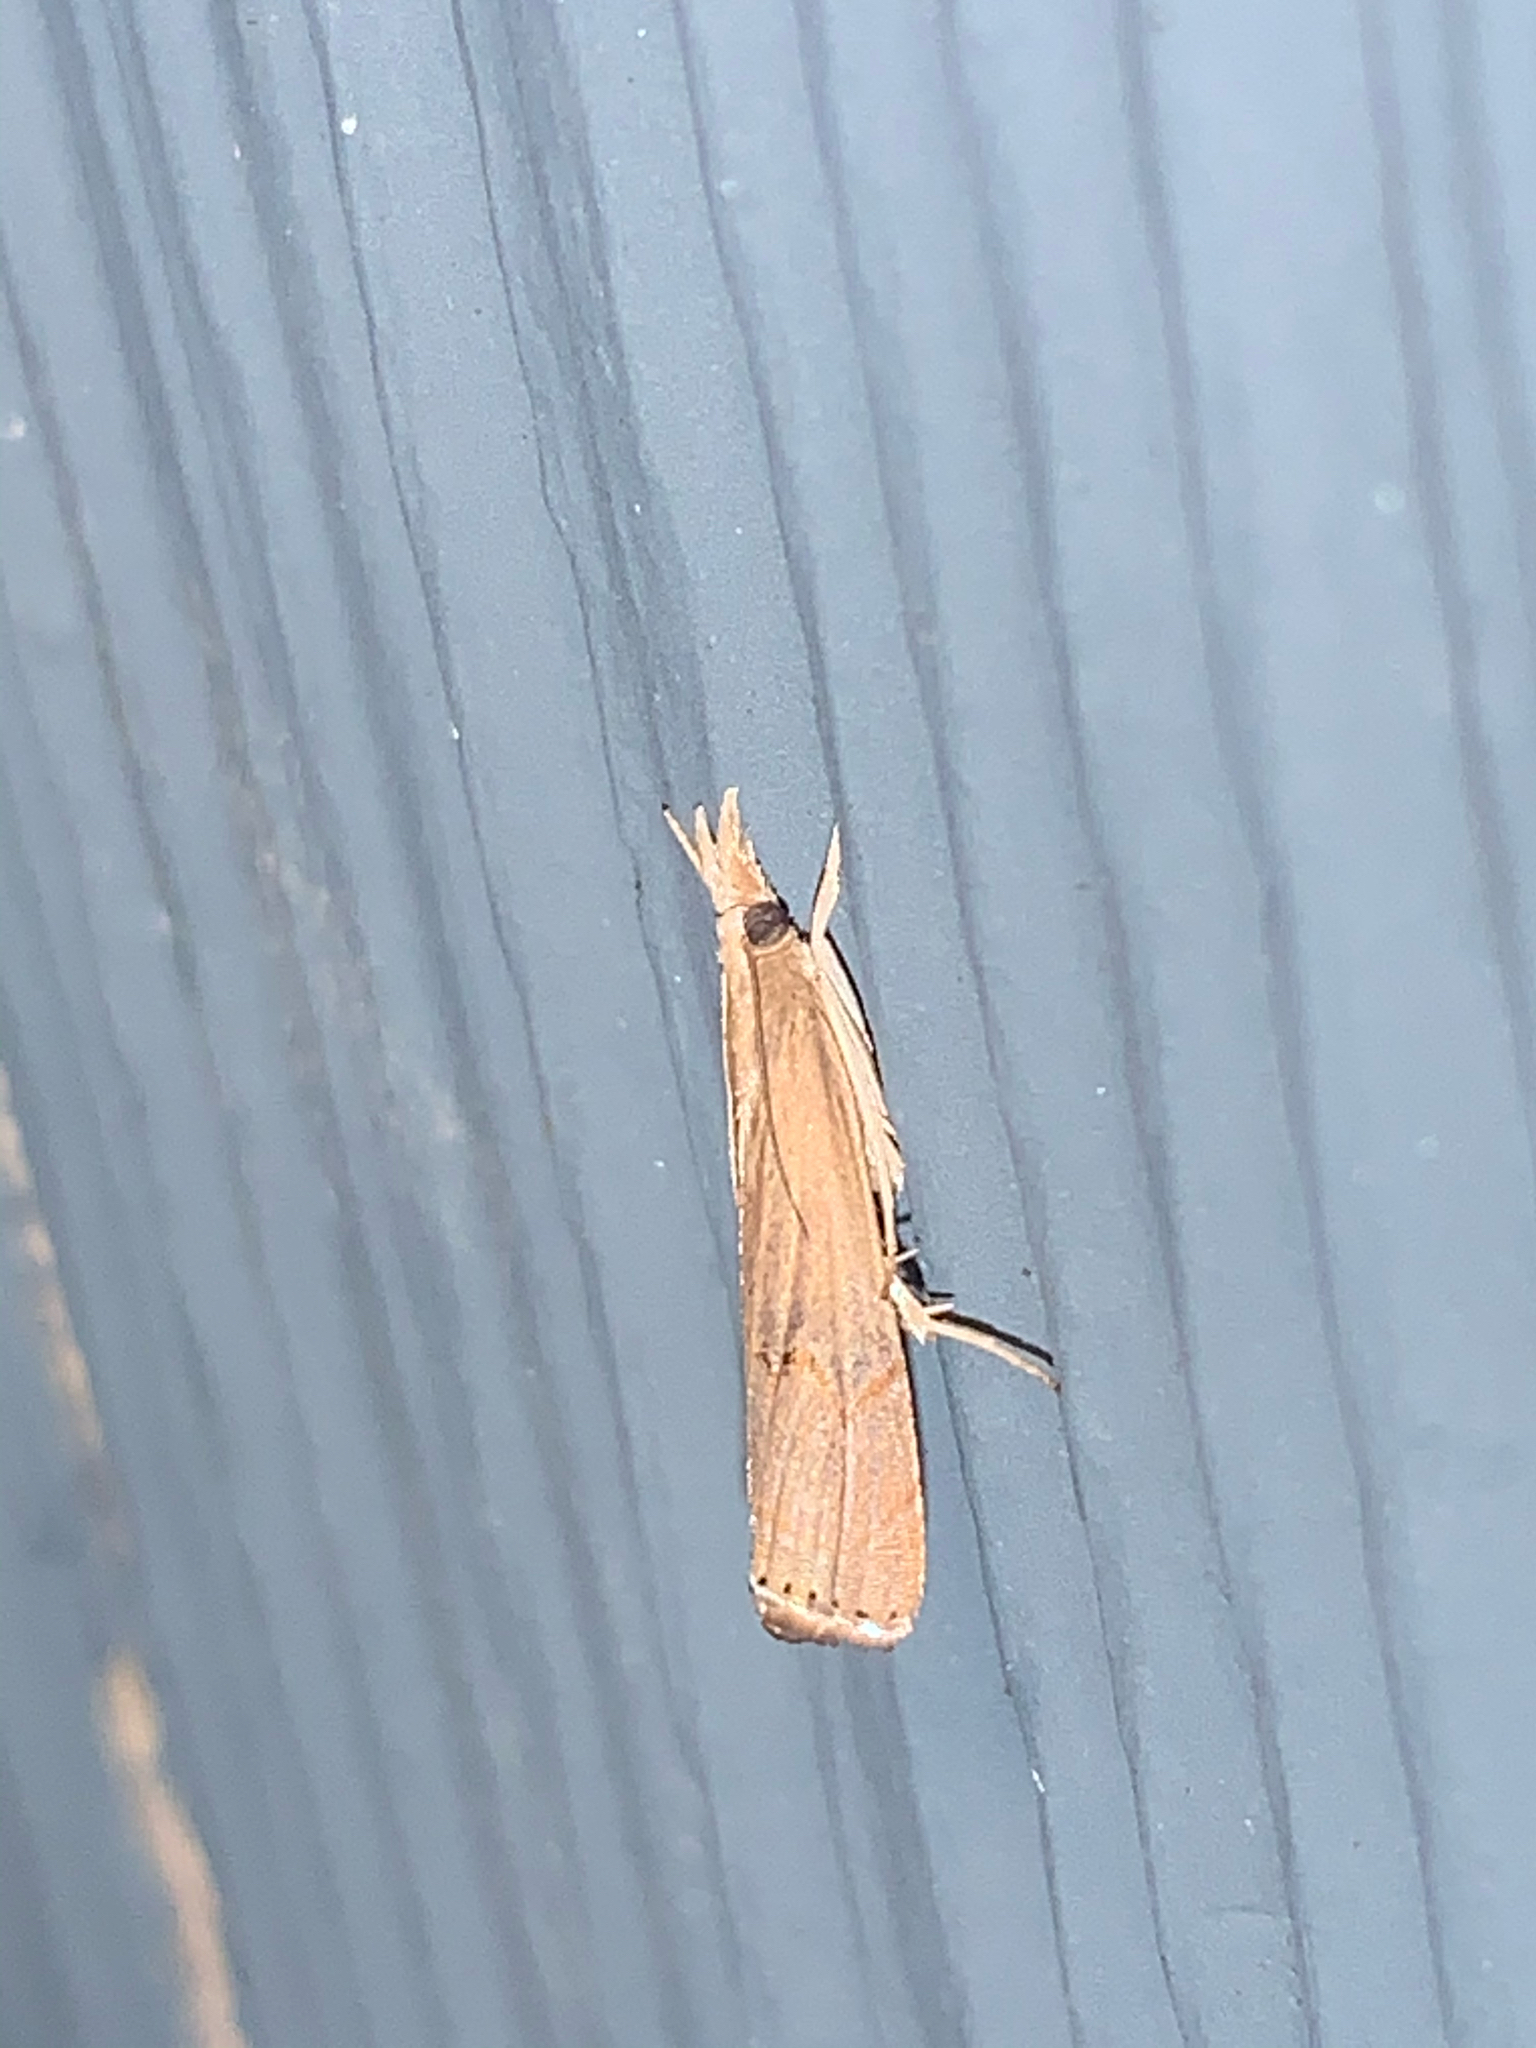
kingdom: Animalia
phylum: Arthropoda
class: Insecta
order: Lepidoptera
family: Crambidae
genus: Parapediasia
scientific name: Parapediasia teterellus
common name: Bluegrass webworm moth
